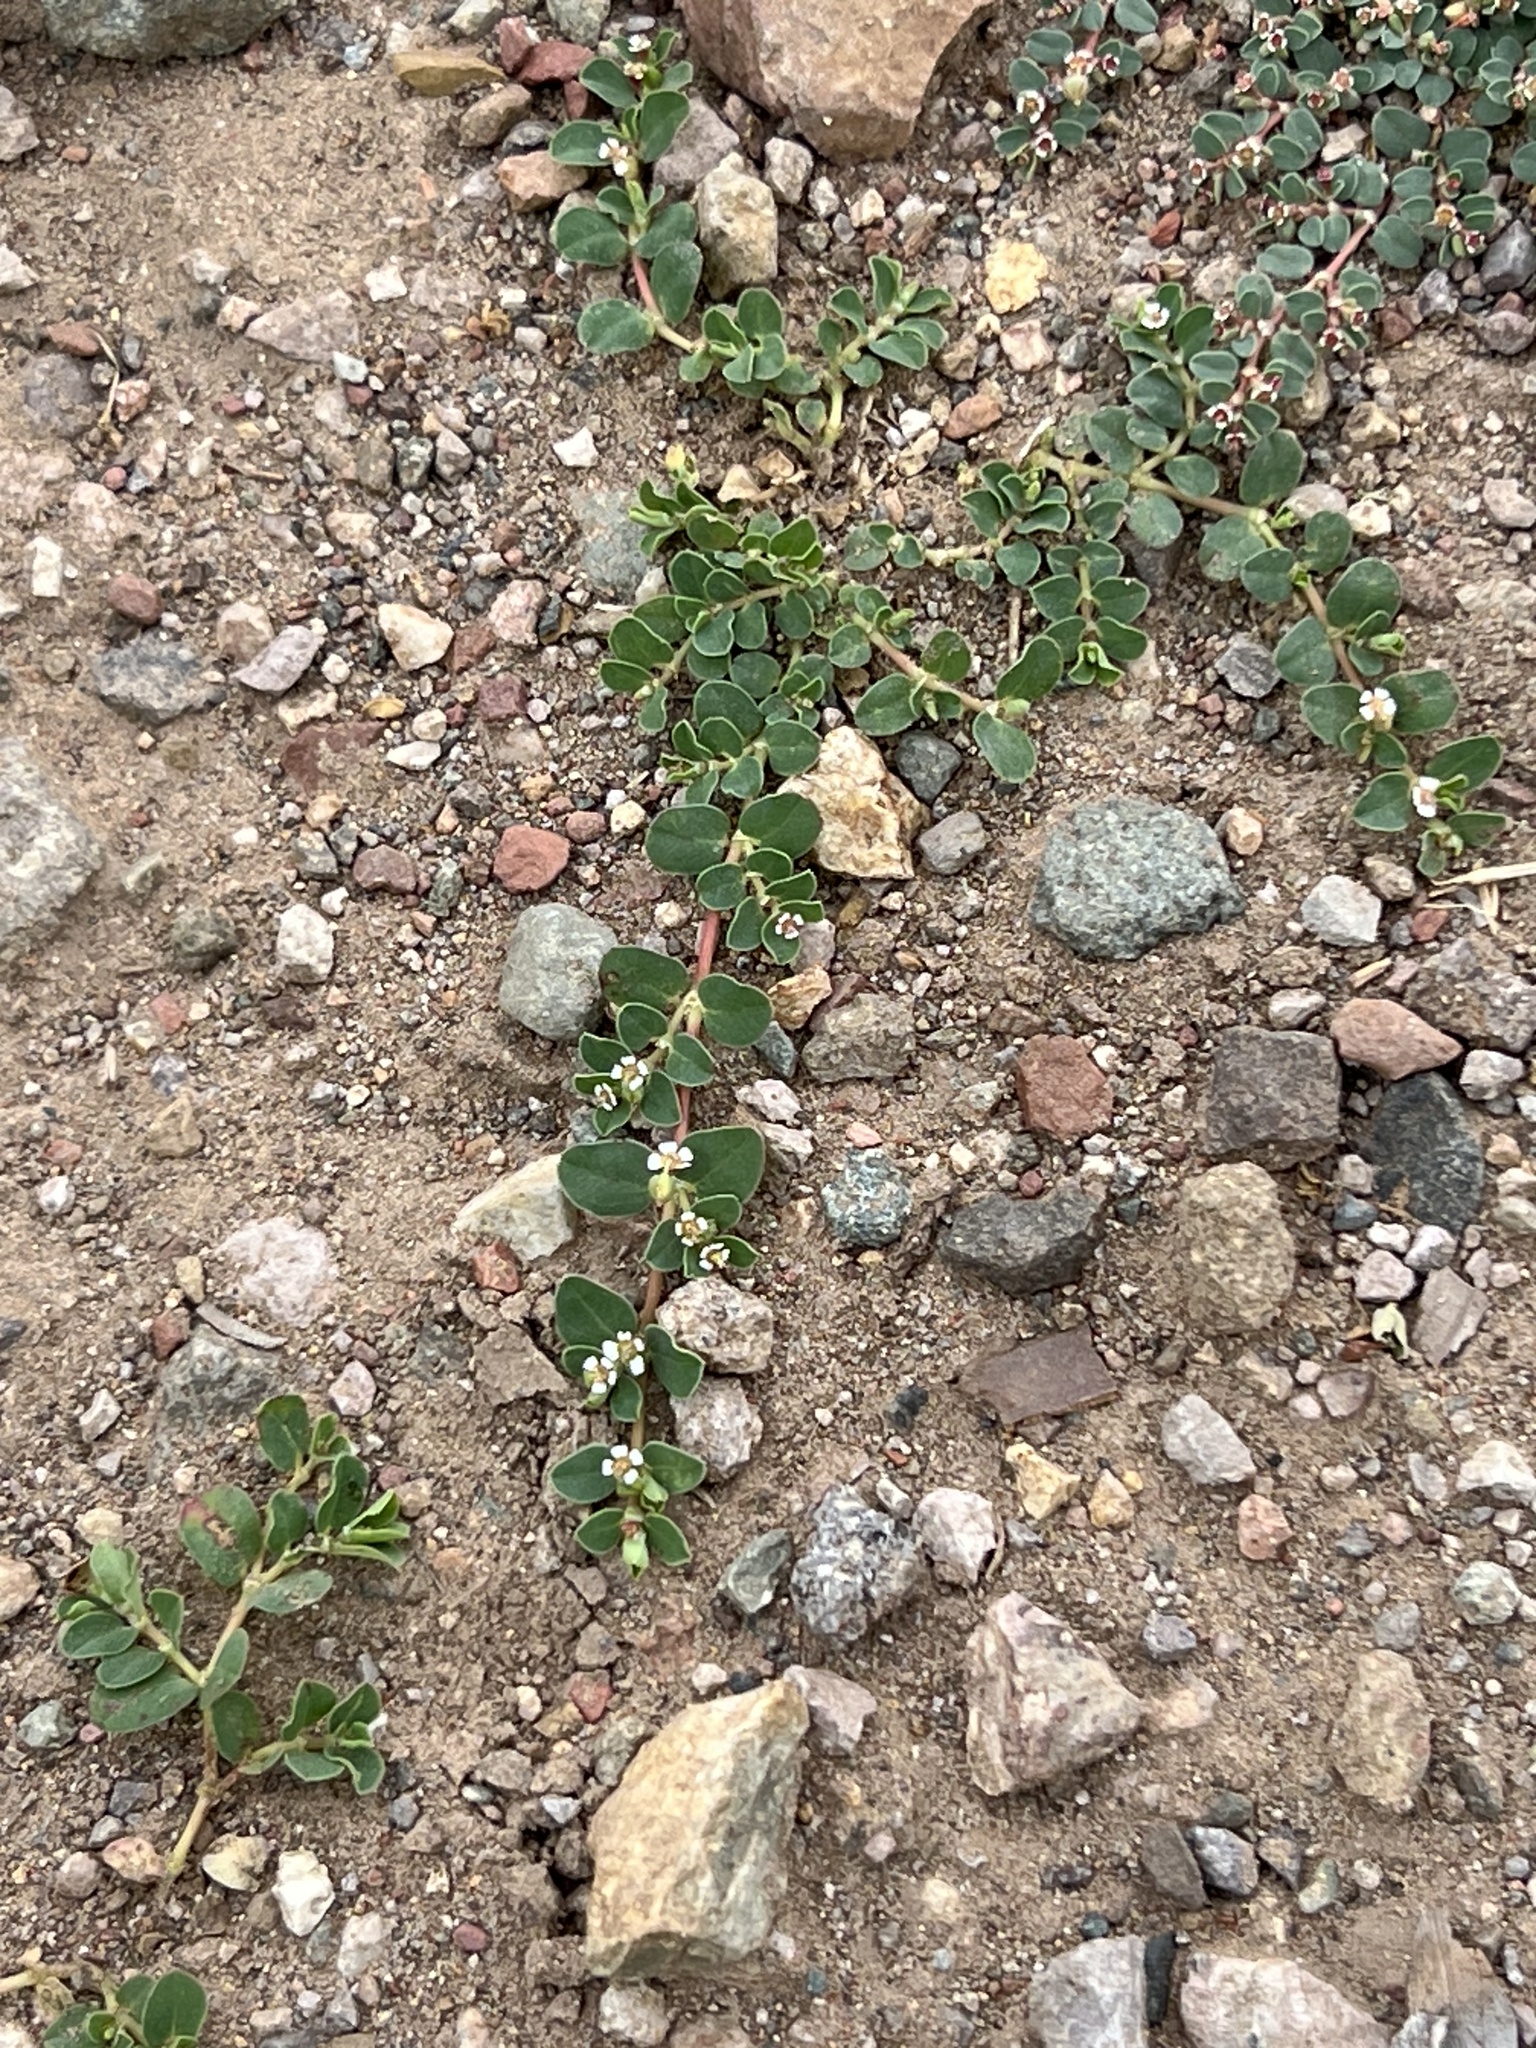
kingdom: Plantae
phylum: Tracheophyta
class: Magnoliopsida
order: Malpighiales
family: Euphorbiaceae
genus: Euphorbia
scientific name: Euphorbia albomarginata
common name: Whitemargin sandmat
